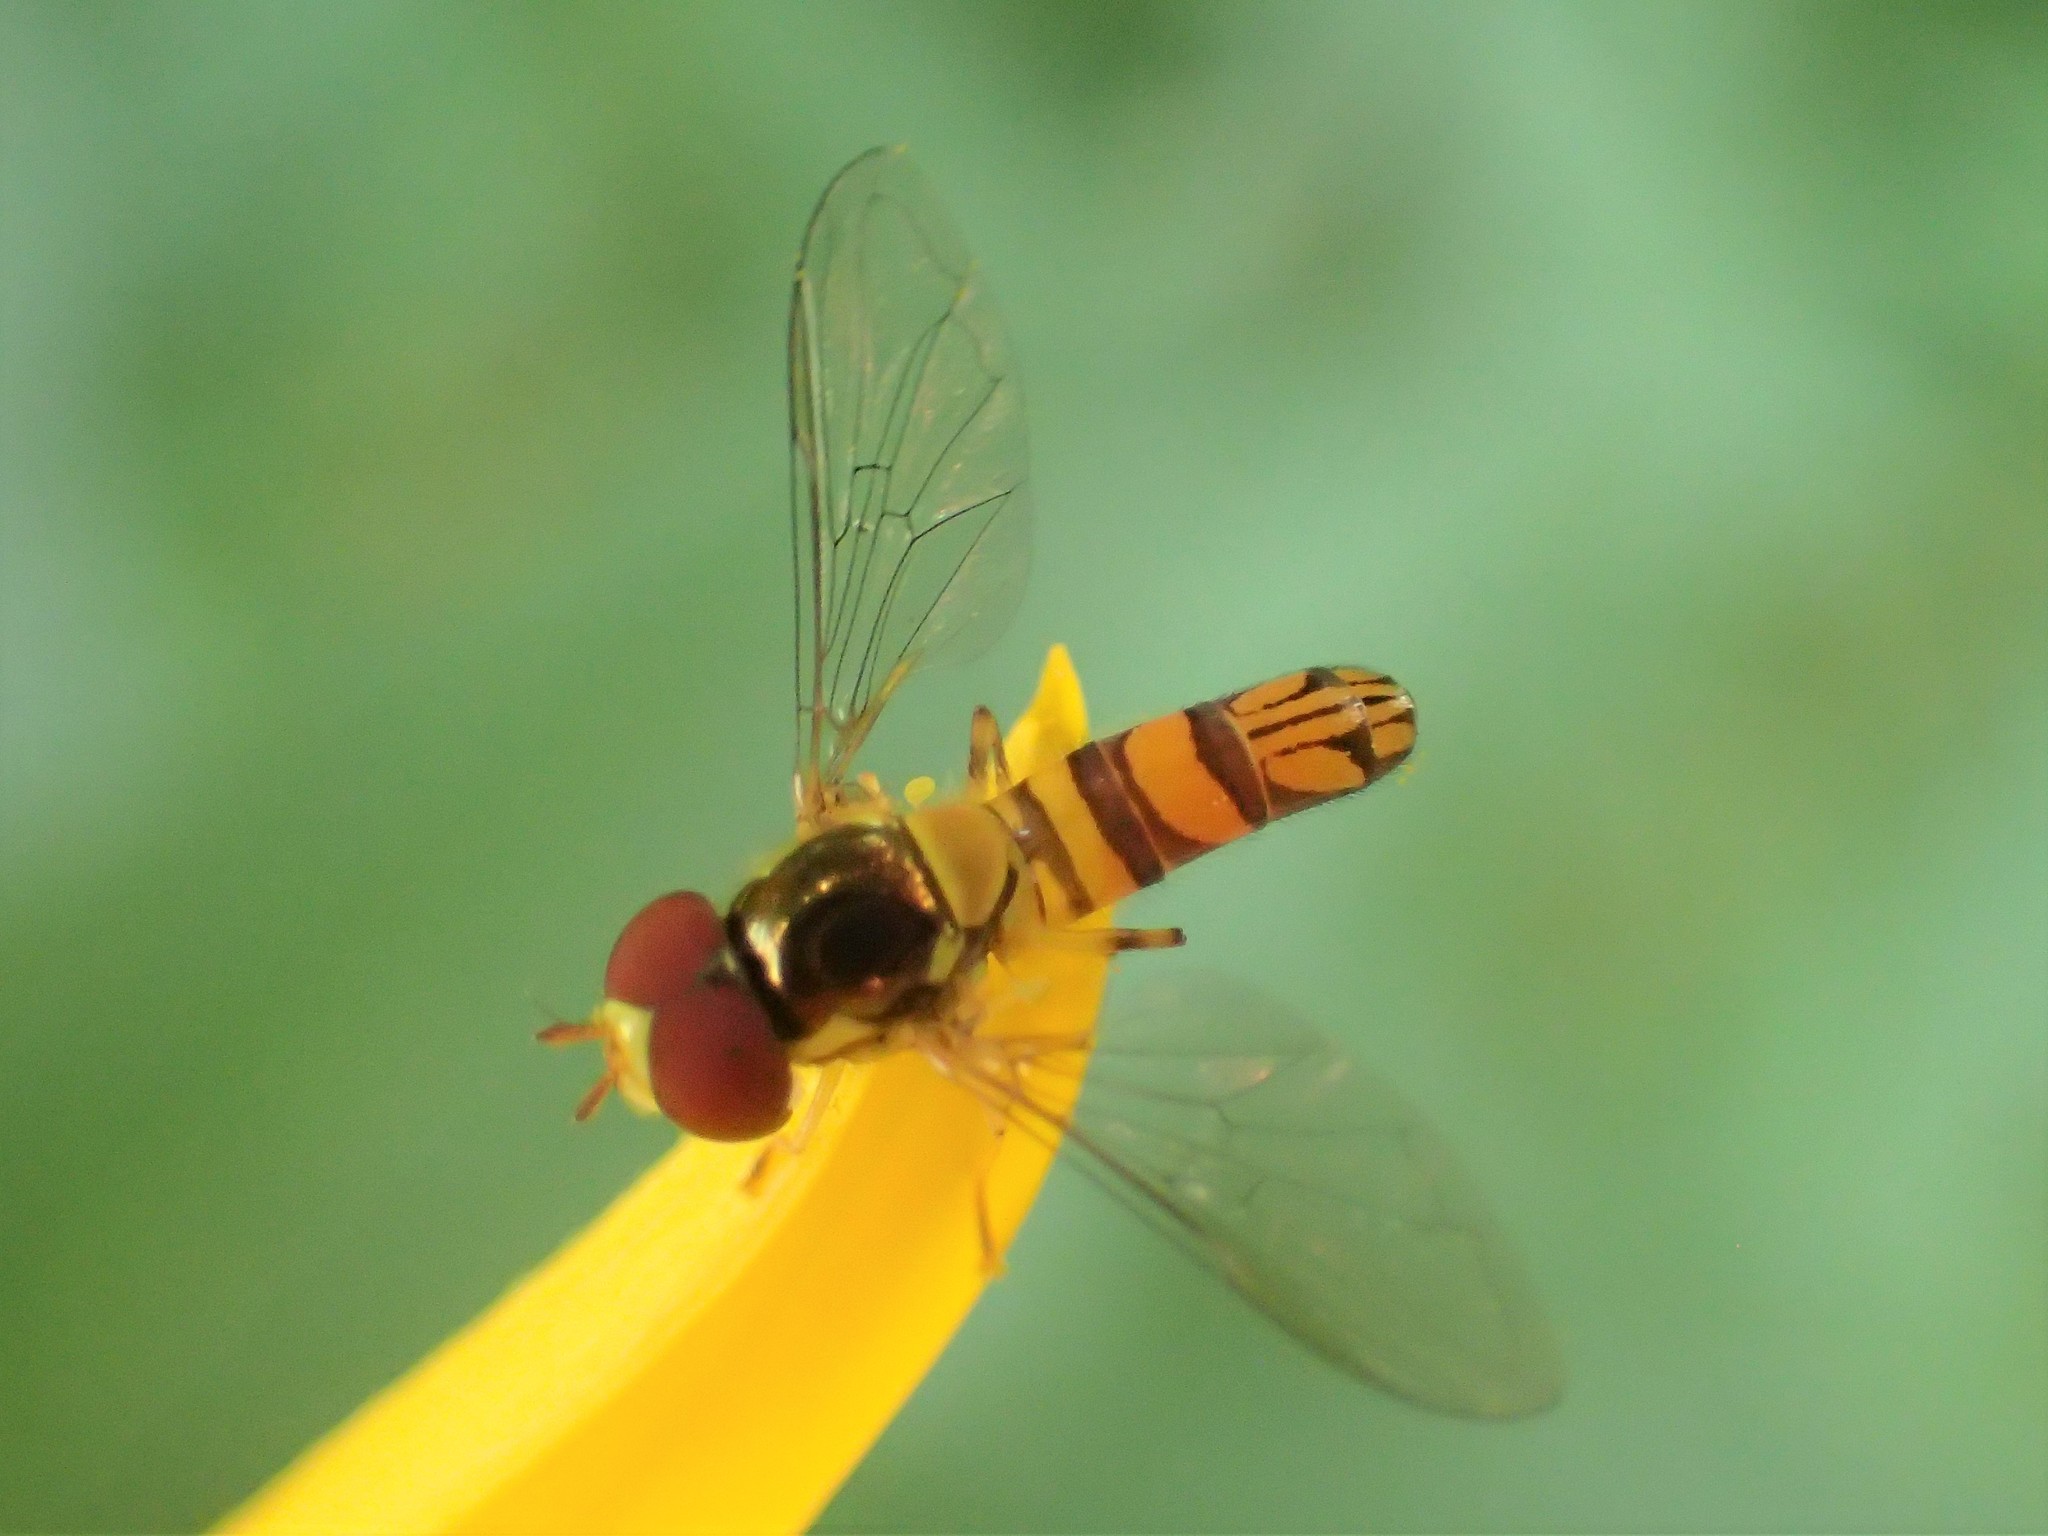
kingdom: Animalia
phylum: Arthropoda
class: Insecta
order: Diptera
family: Syrphidae
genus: Allograpta
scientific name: Allograpta obliqua
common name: Common oblique syrphid
